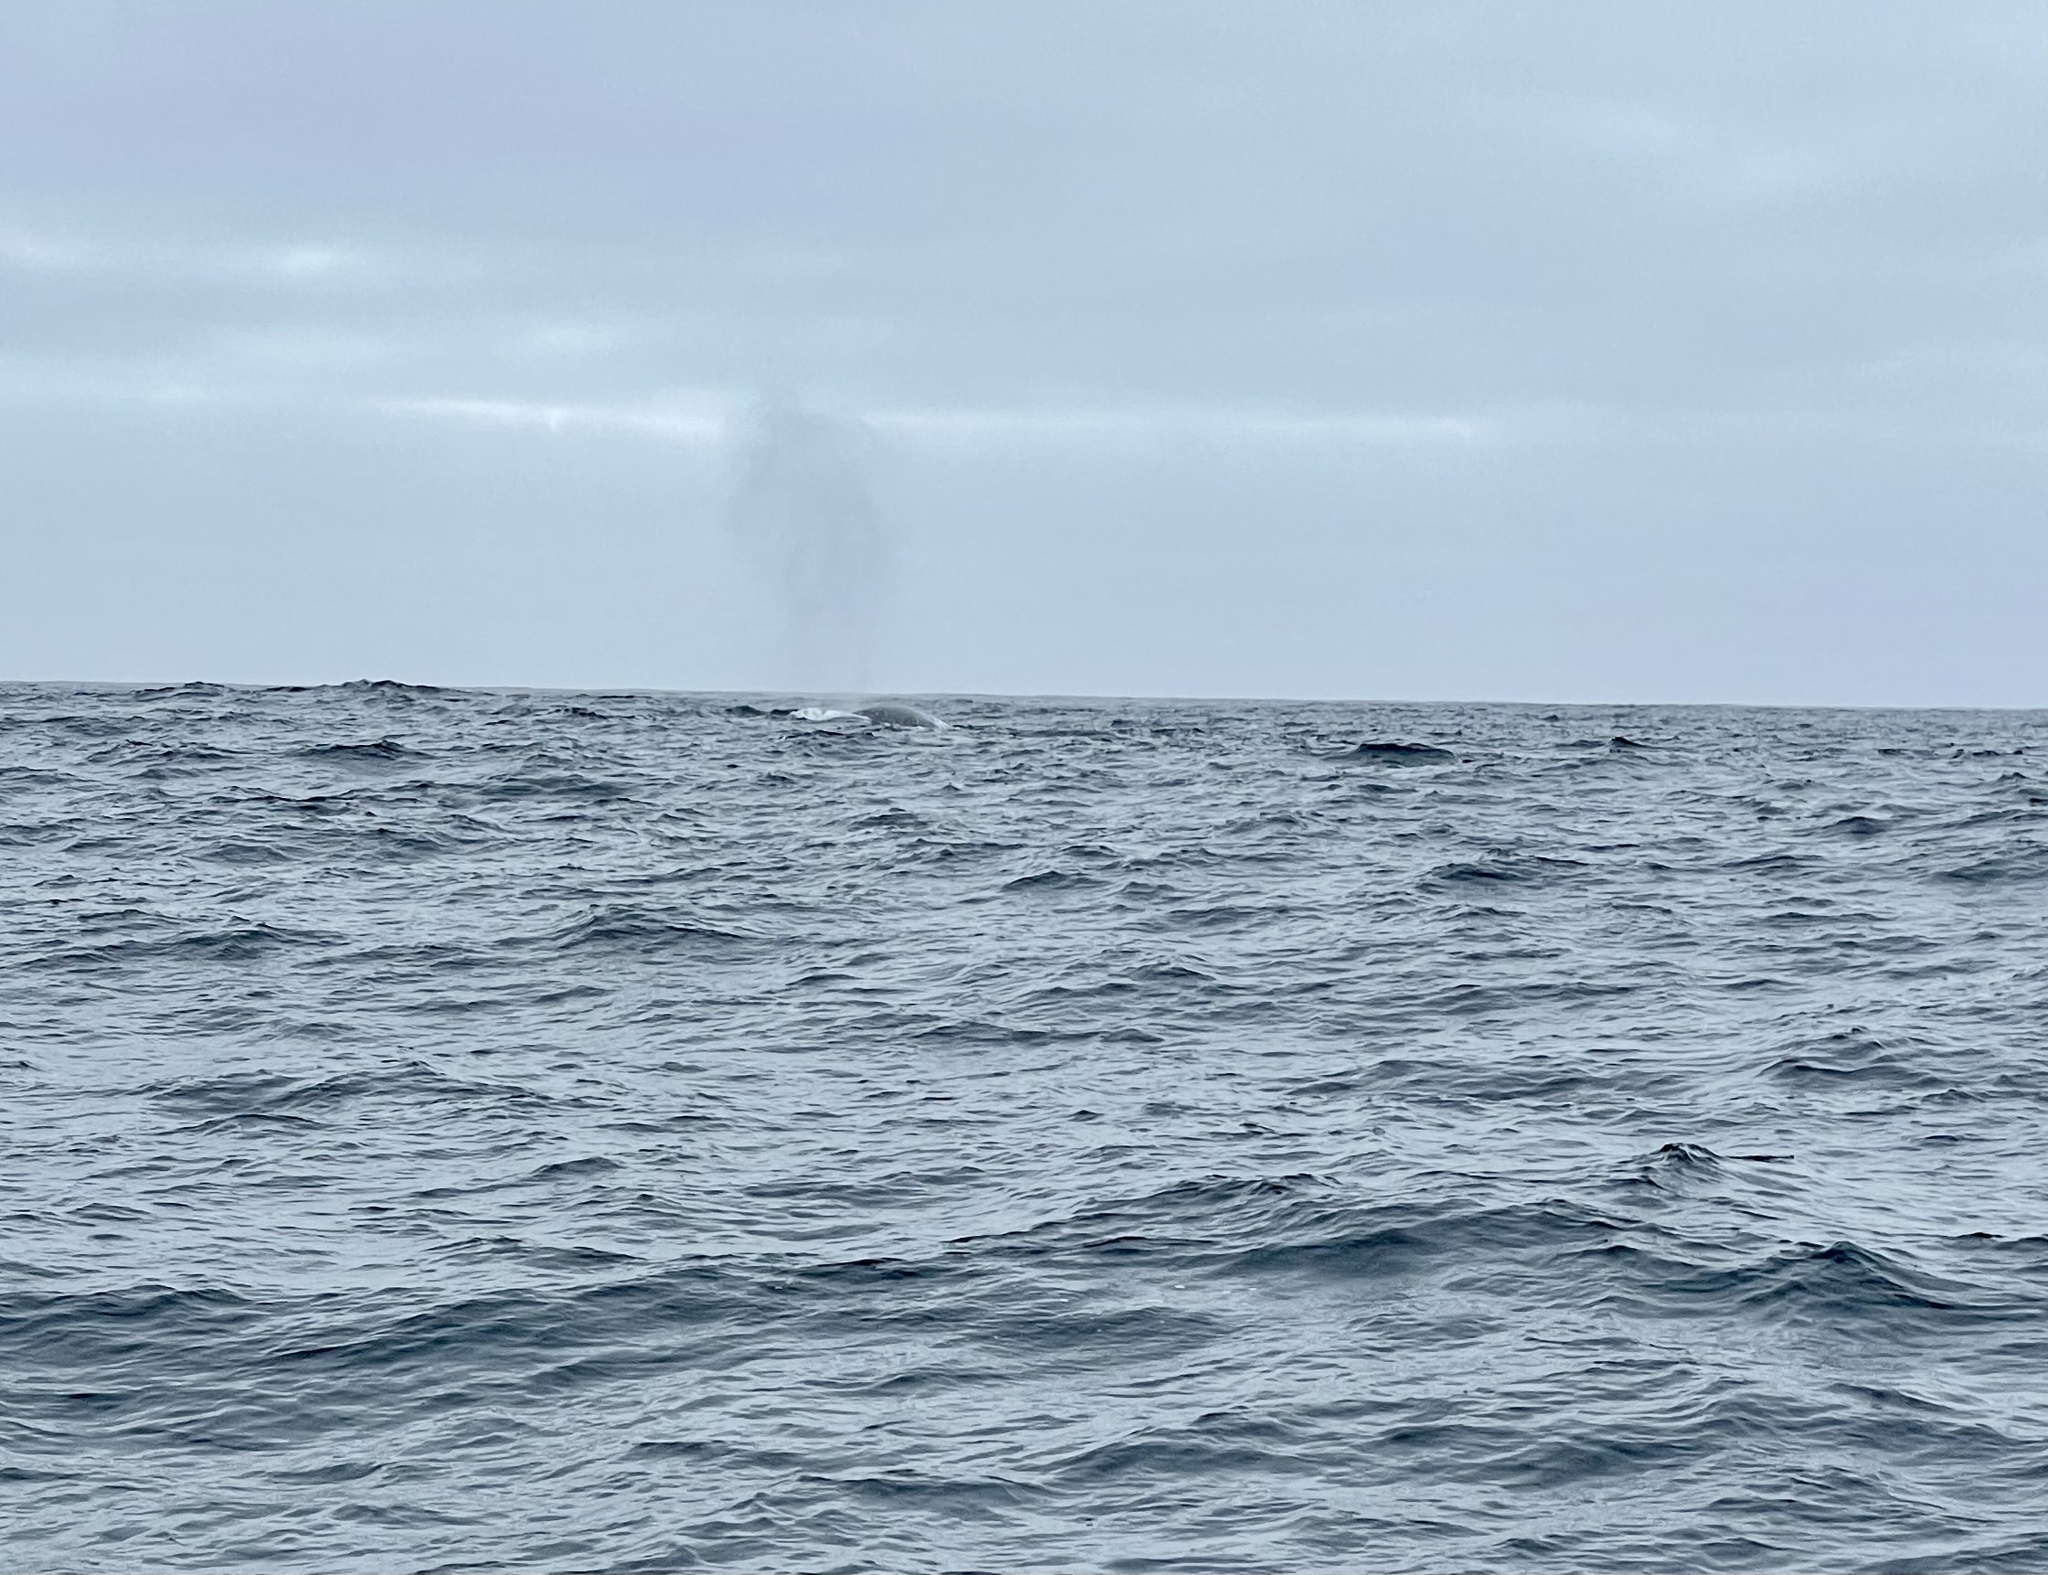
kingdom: Animalia
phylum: Chordata
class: Mammalia
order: Cetacea
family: Balaenopteridae
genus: Balaenoptera
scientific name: Balaenoptera physalus
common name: Fin whale
